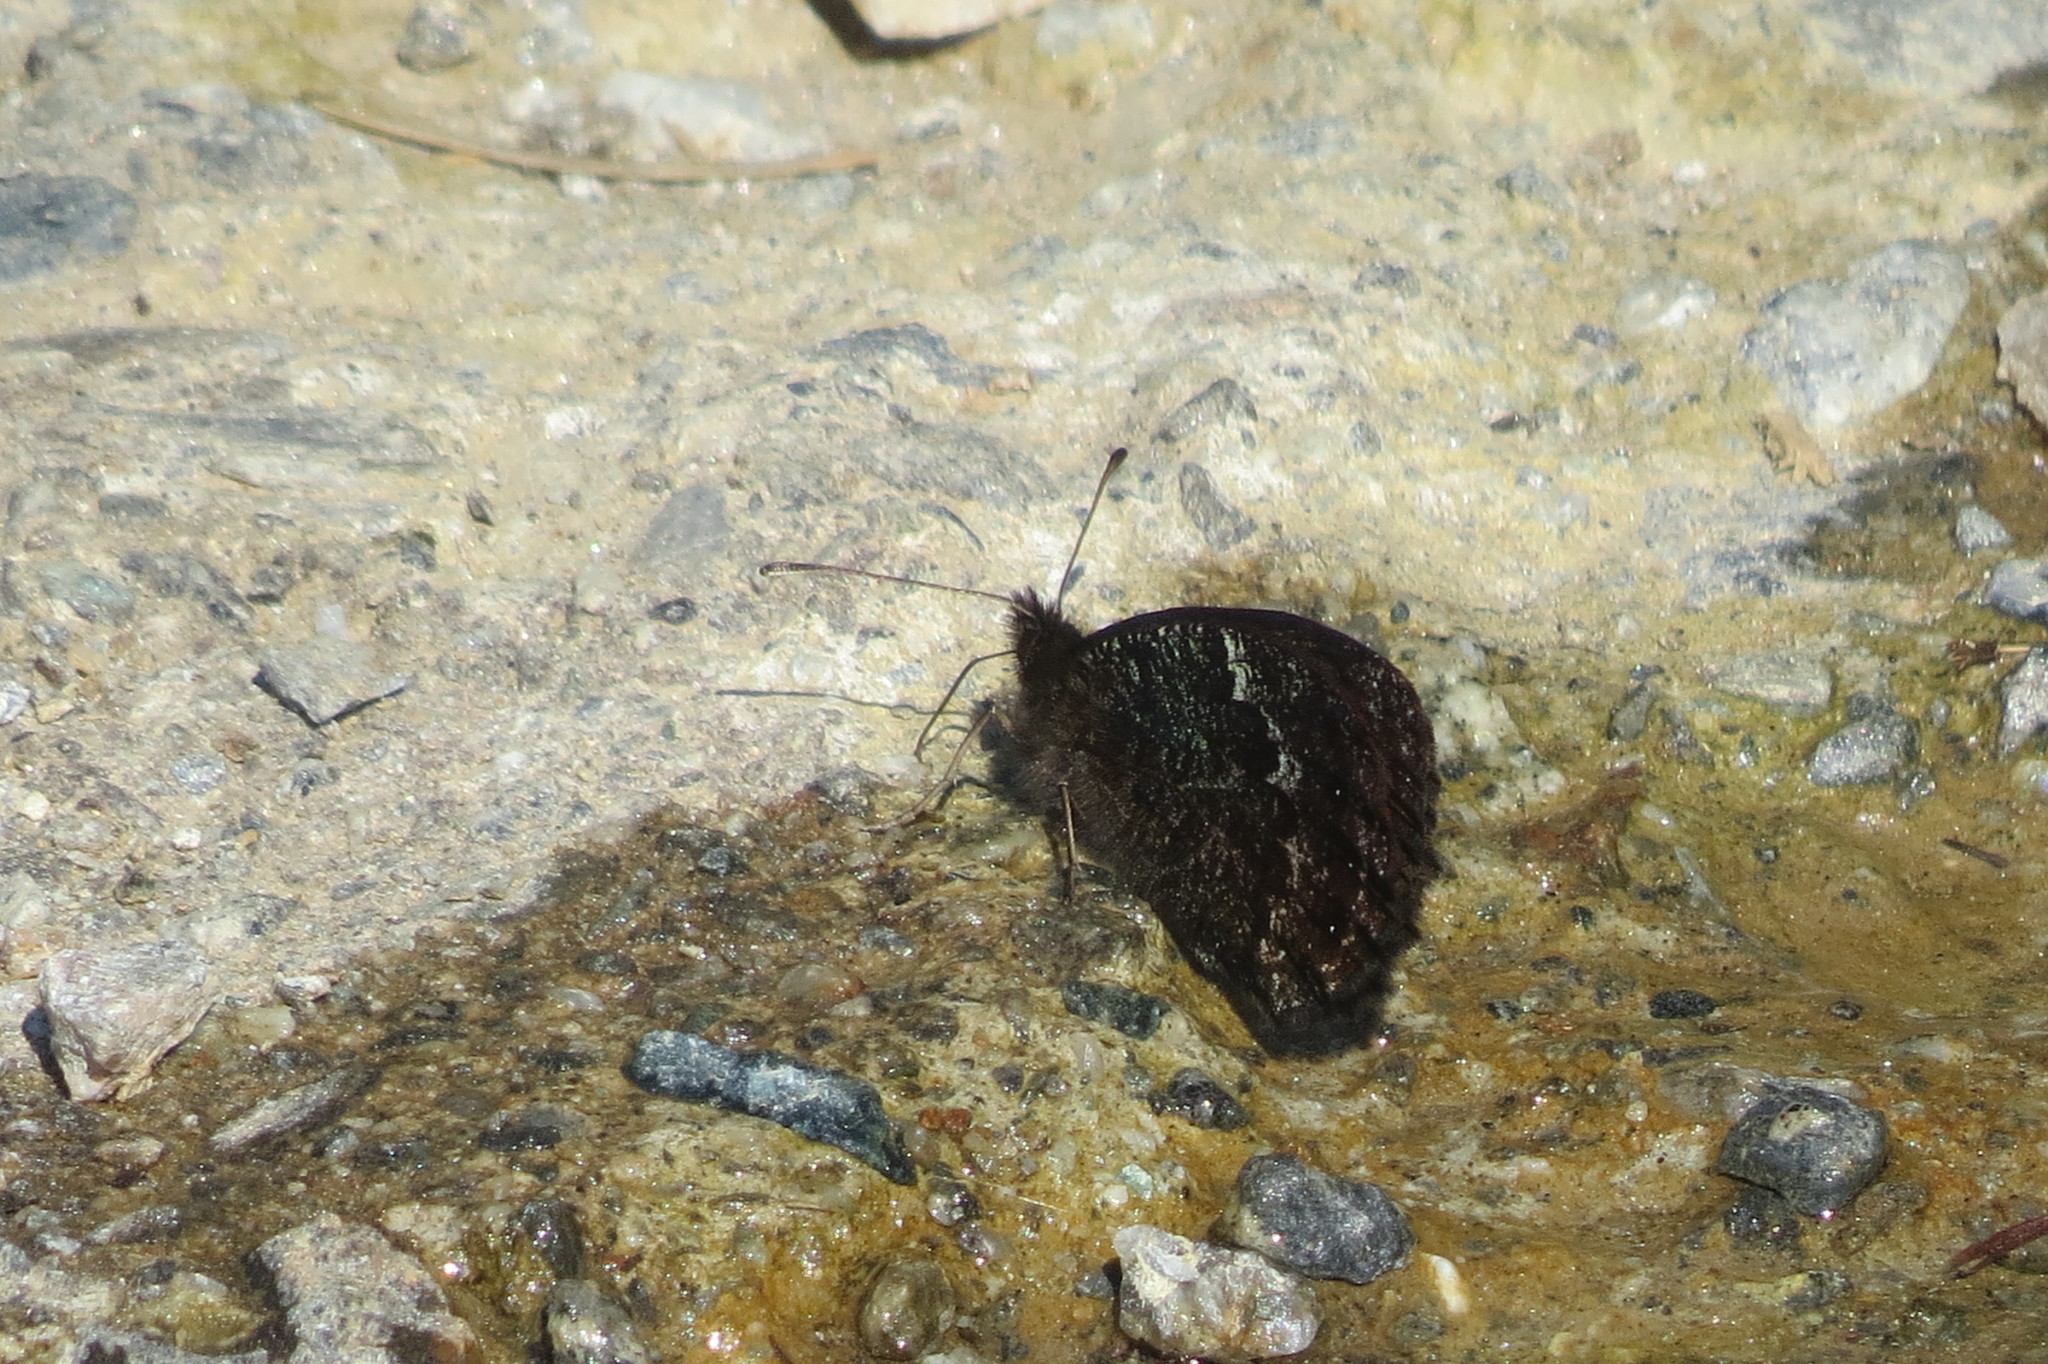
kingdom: Animalia
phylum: Arthropoda
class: Insecta
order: Lepidoptera
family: Nymphalidae
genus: Erebia
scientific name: Erebia montanus
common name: Marbled ringlet
